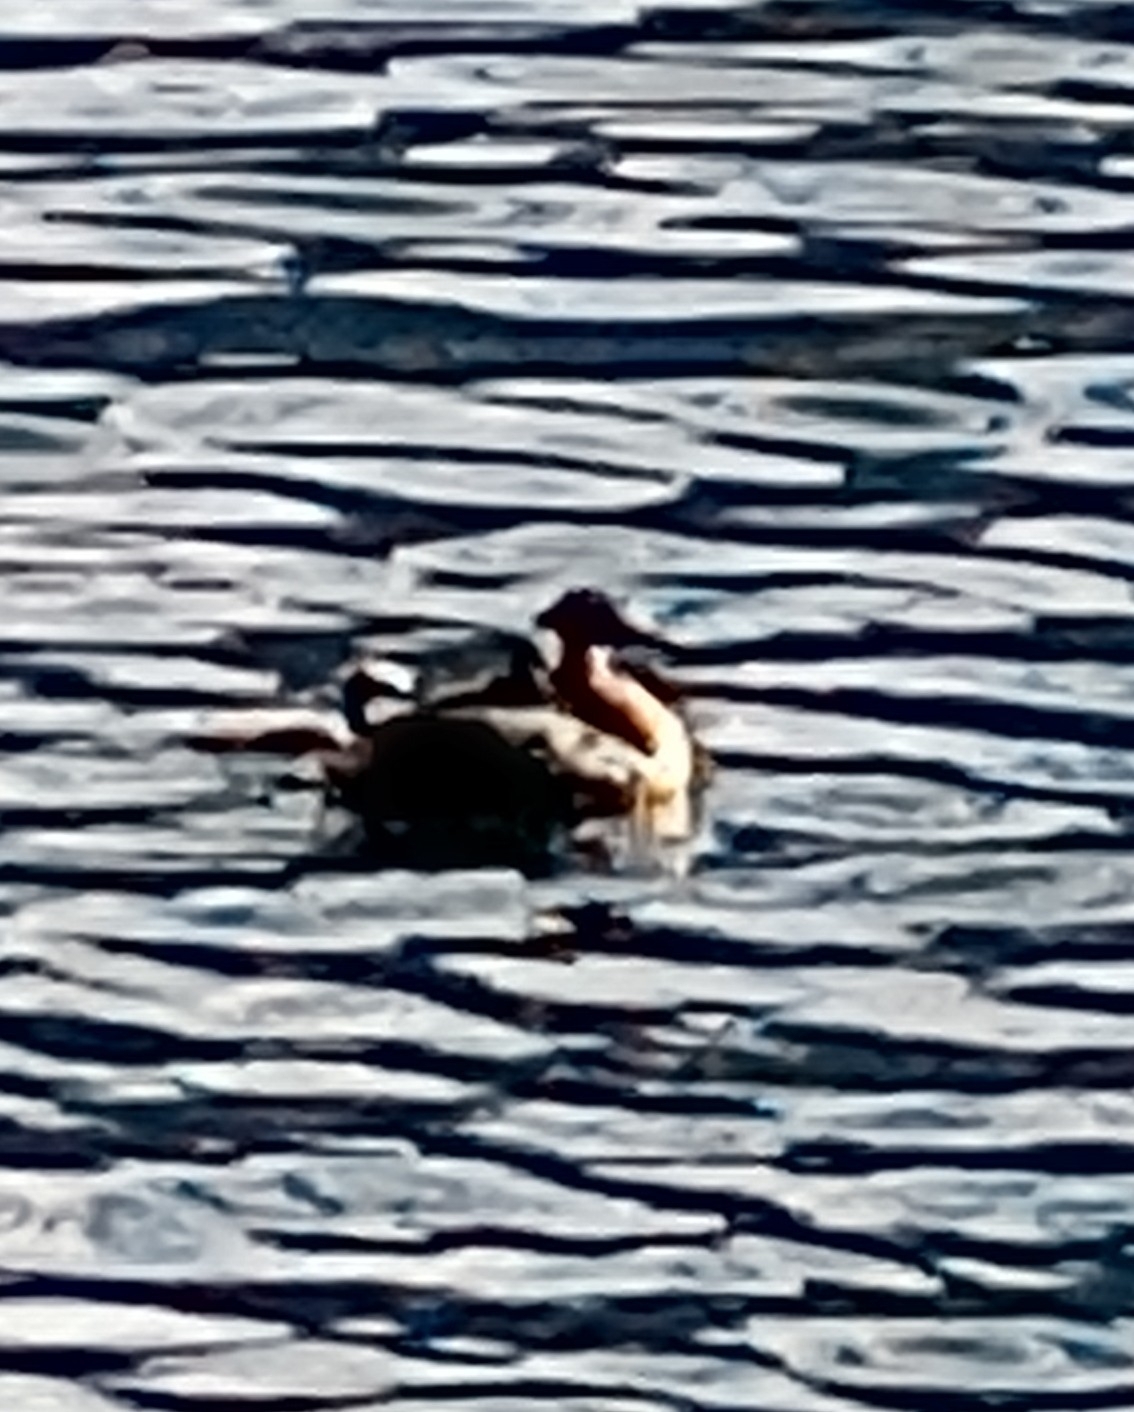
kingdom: Animalia
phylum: Chordata
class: Aves
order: Podicipediformes
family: Podicipedidae
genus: Podiceps
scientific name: Podiceps major
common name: Great grebe
